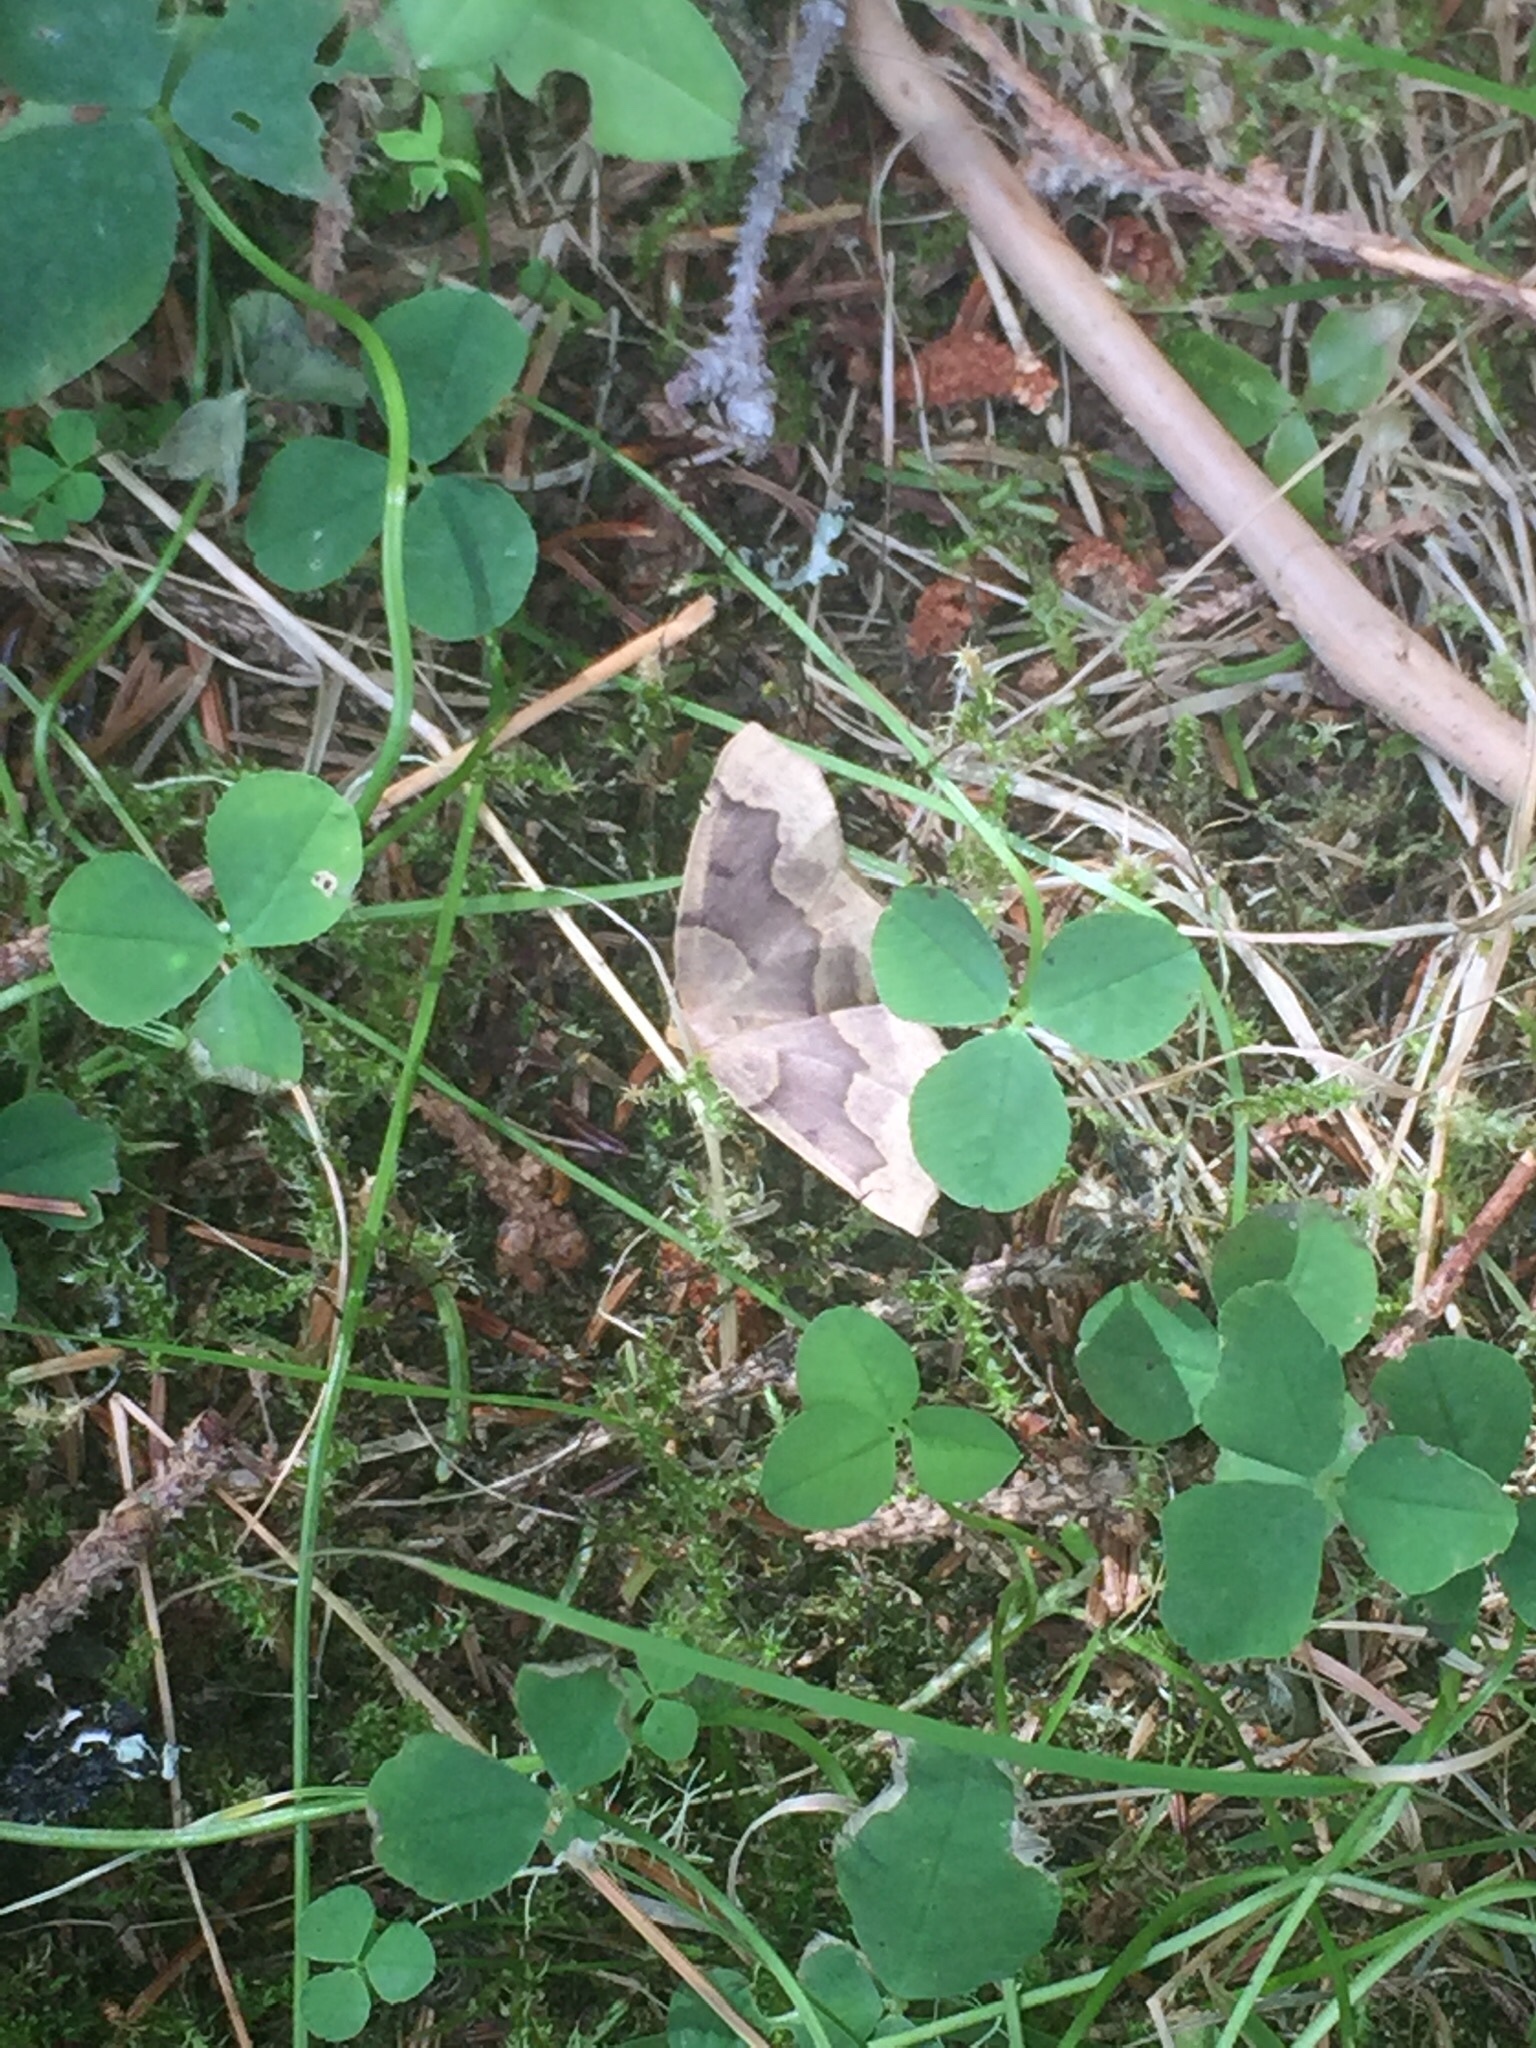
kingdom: Animalia
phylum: Arthropoda
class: Insecta
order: Lepidoptera
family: Geometridae
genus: Lambdina
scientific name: Lambdina fiscellaria
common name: Hemlock looper
